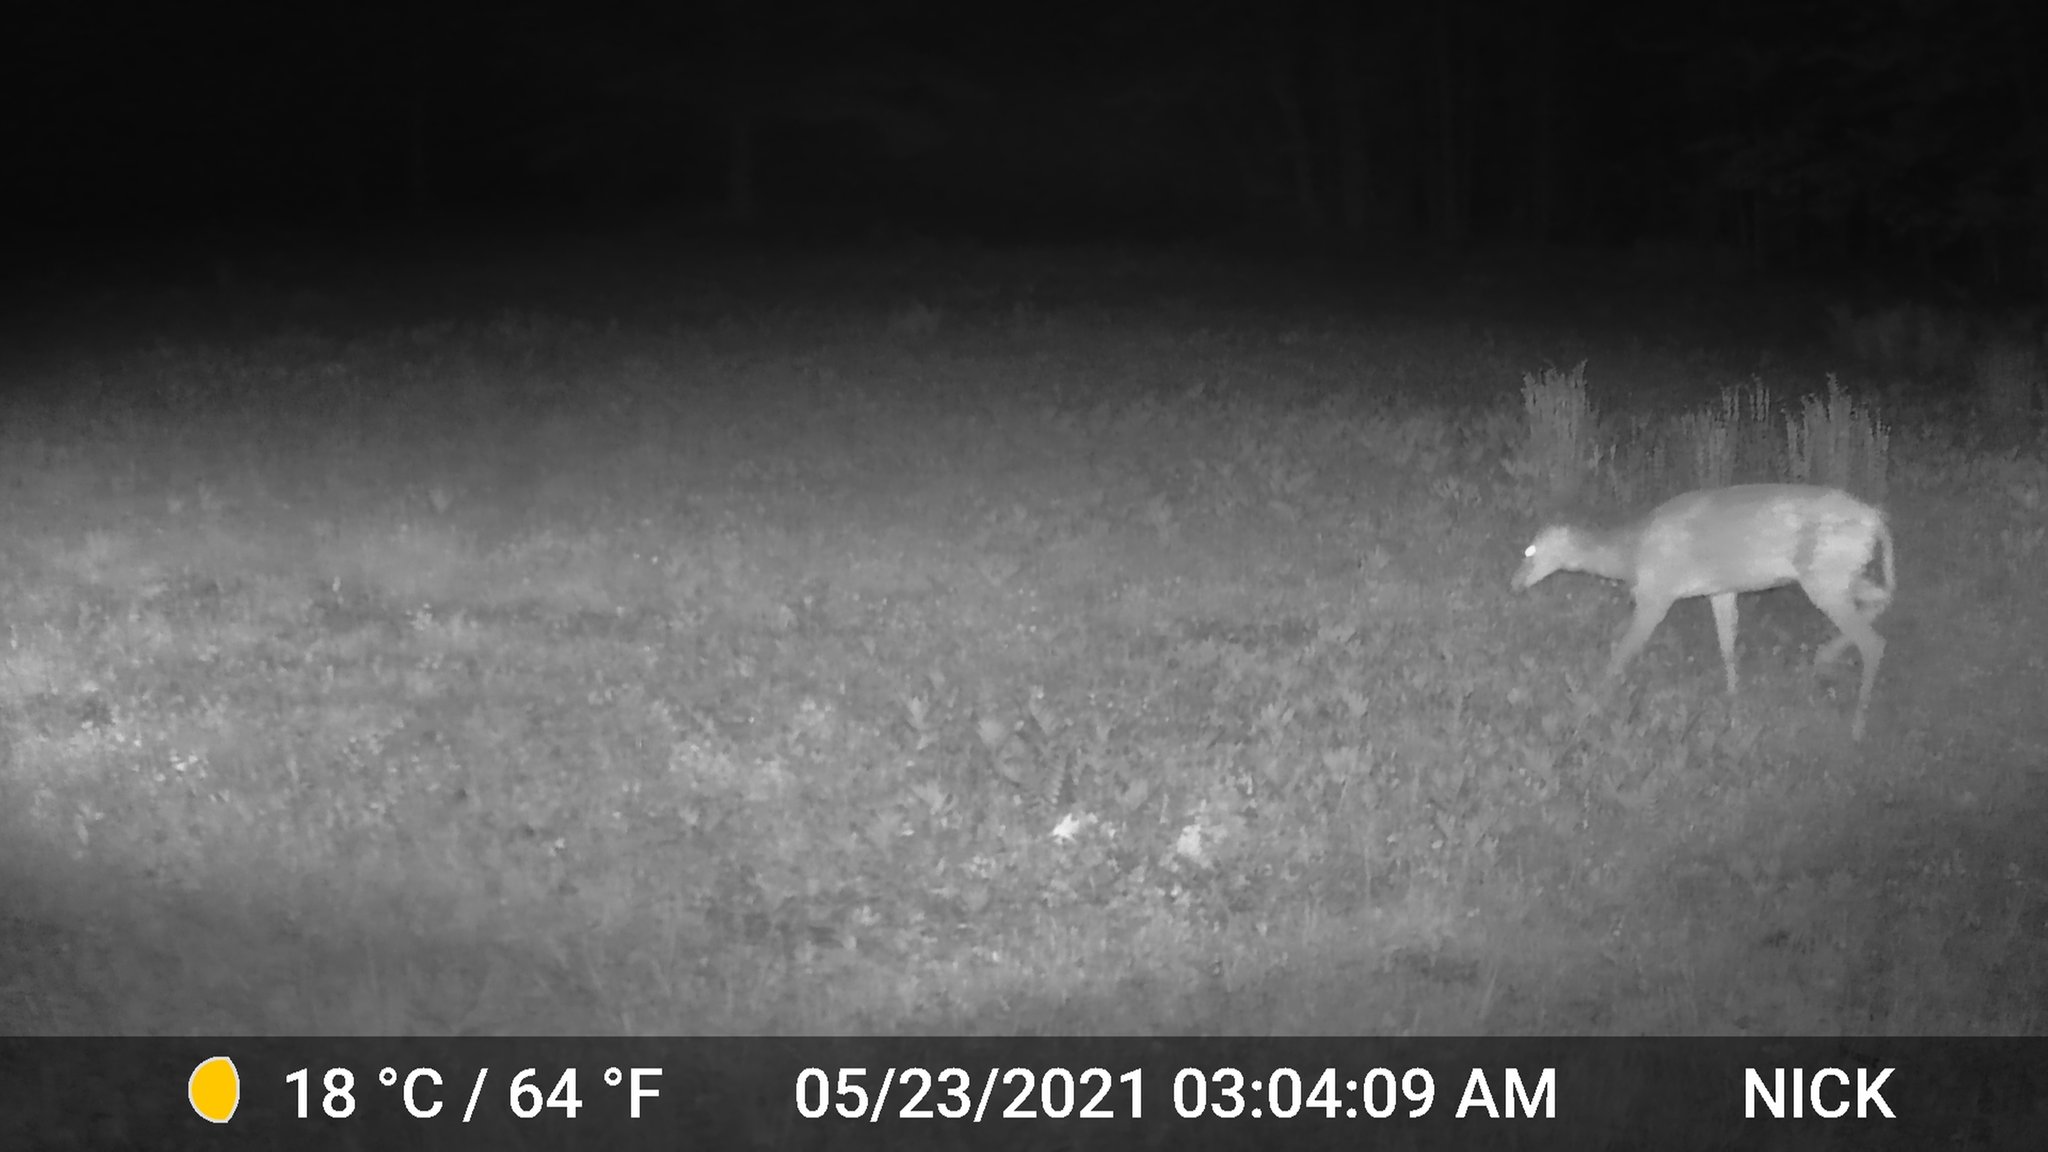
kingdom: Animalia
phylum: Chordata
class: Mammalia
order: Artiodactyla
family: Cervidae
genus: Odocoileus
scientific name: Odocoileus virginianus
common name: White-tailed deer
